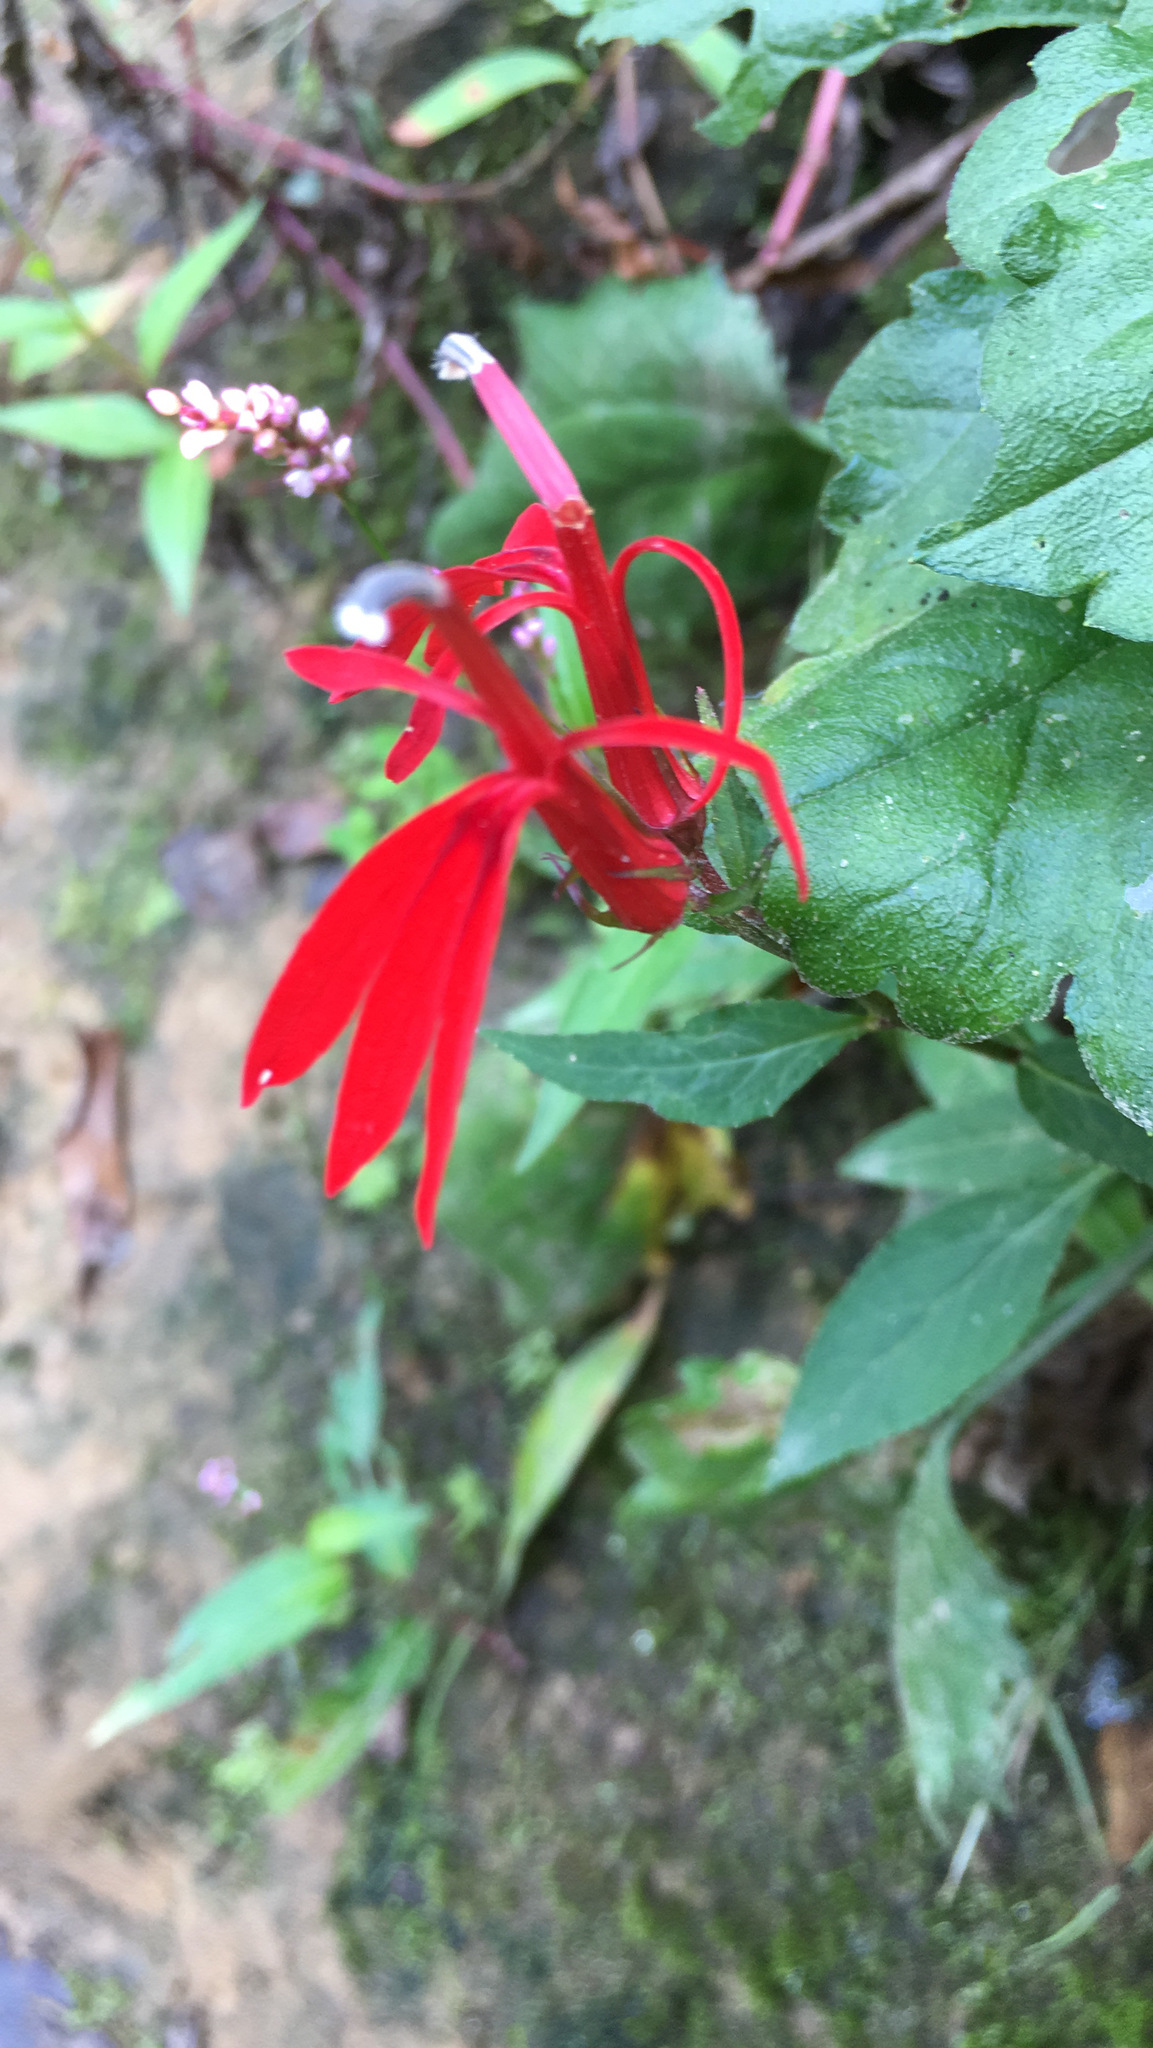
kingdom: Plantae
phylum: Tracheophyta
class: Magnoliopsida
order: Asterales
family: Campanulaceae
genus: Lobelia
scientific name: Lobelia cardinalis
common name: Cardinal flower
